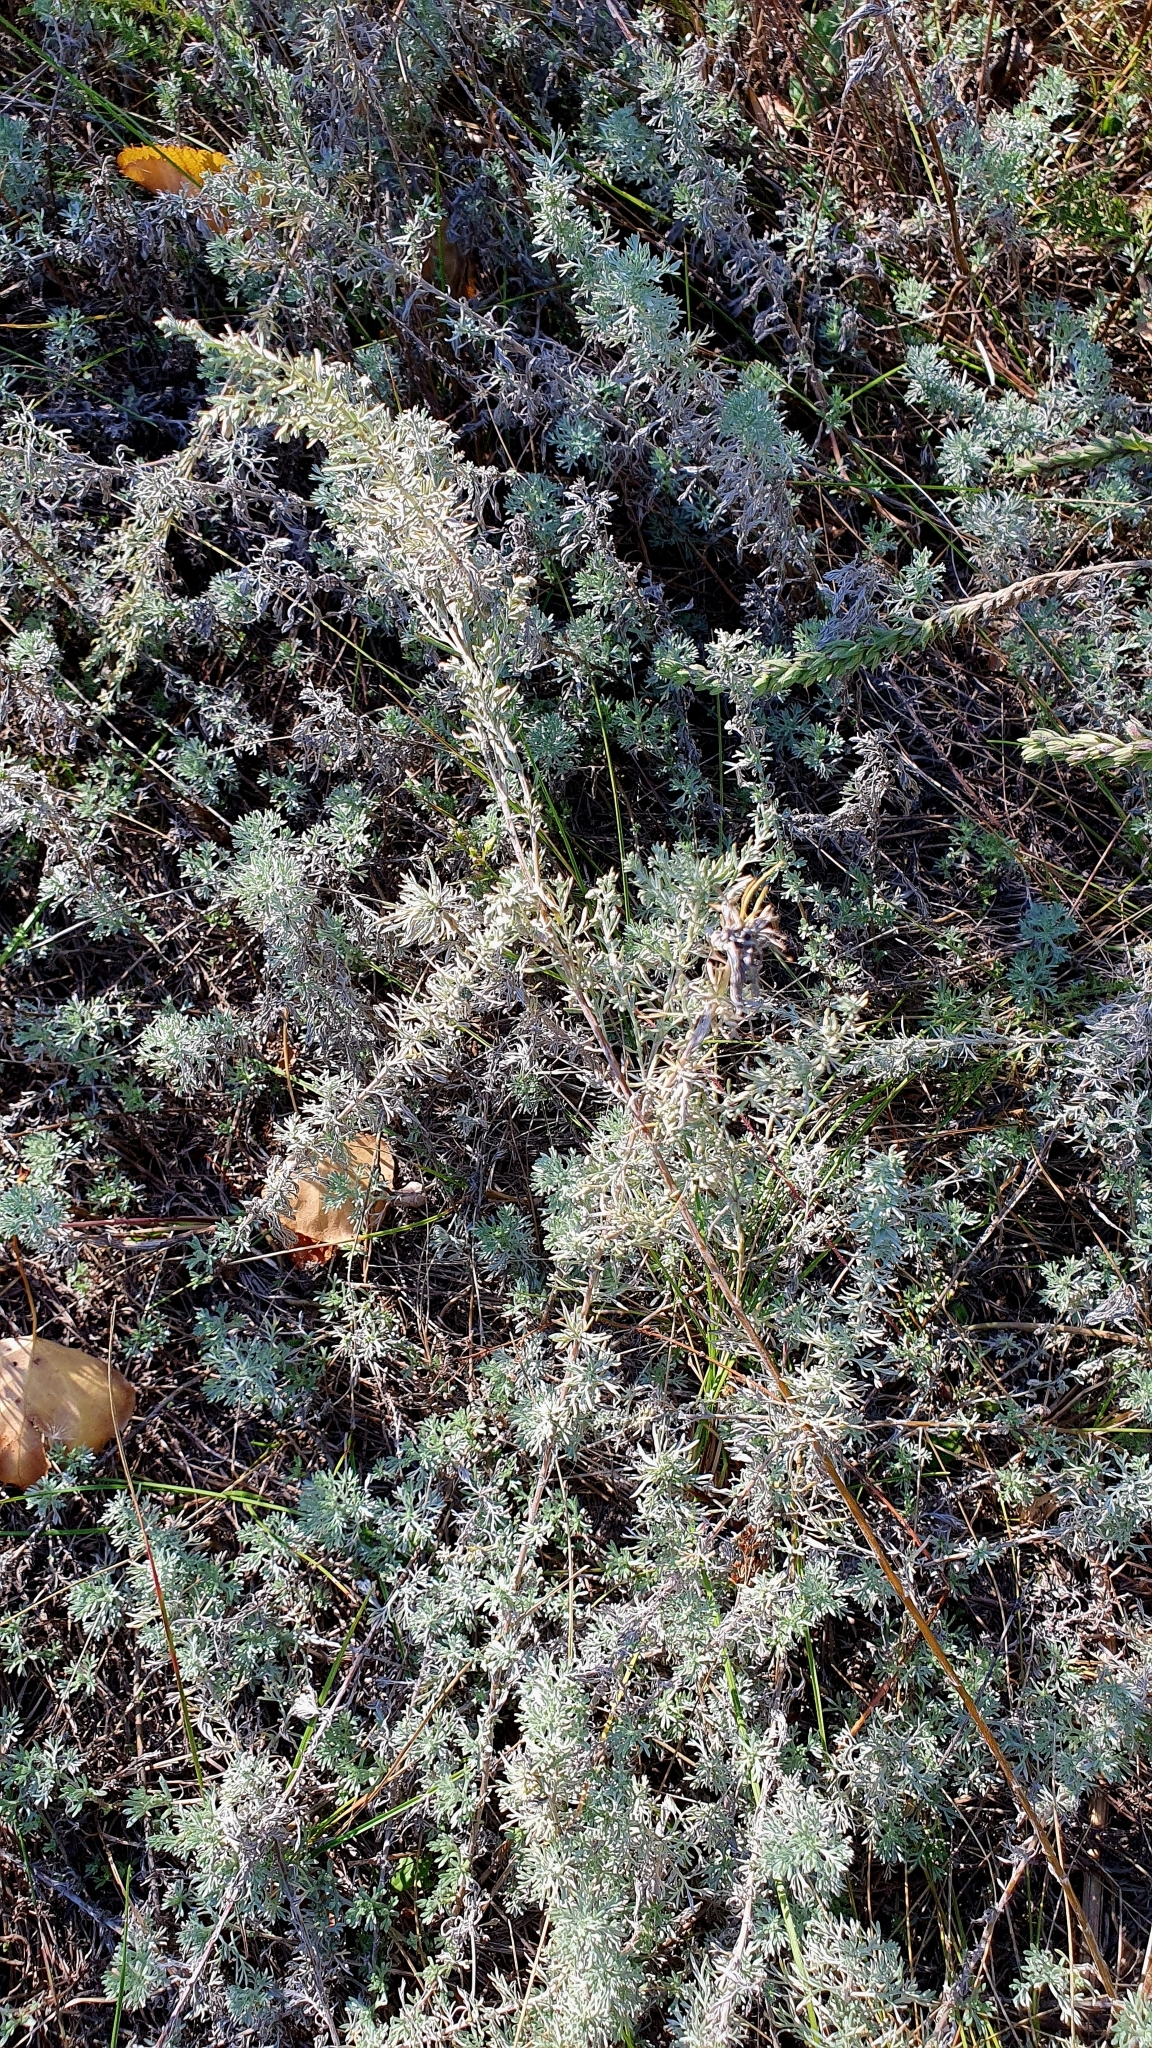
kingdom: Plantae
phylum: Tracheophyta
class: Magnoliopsida
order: Asterales
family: Asteraceae
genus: Artemisia
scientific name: Artemisia austriaca
